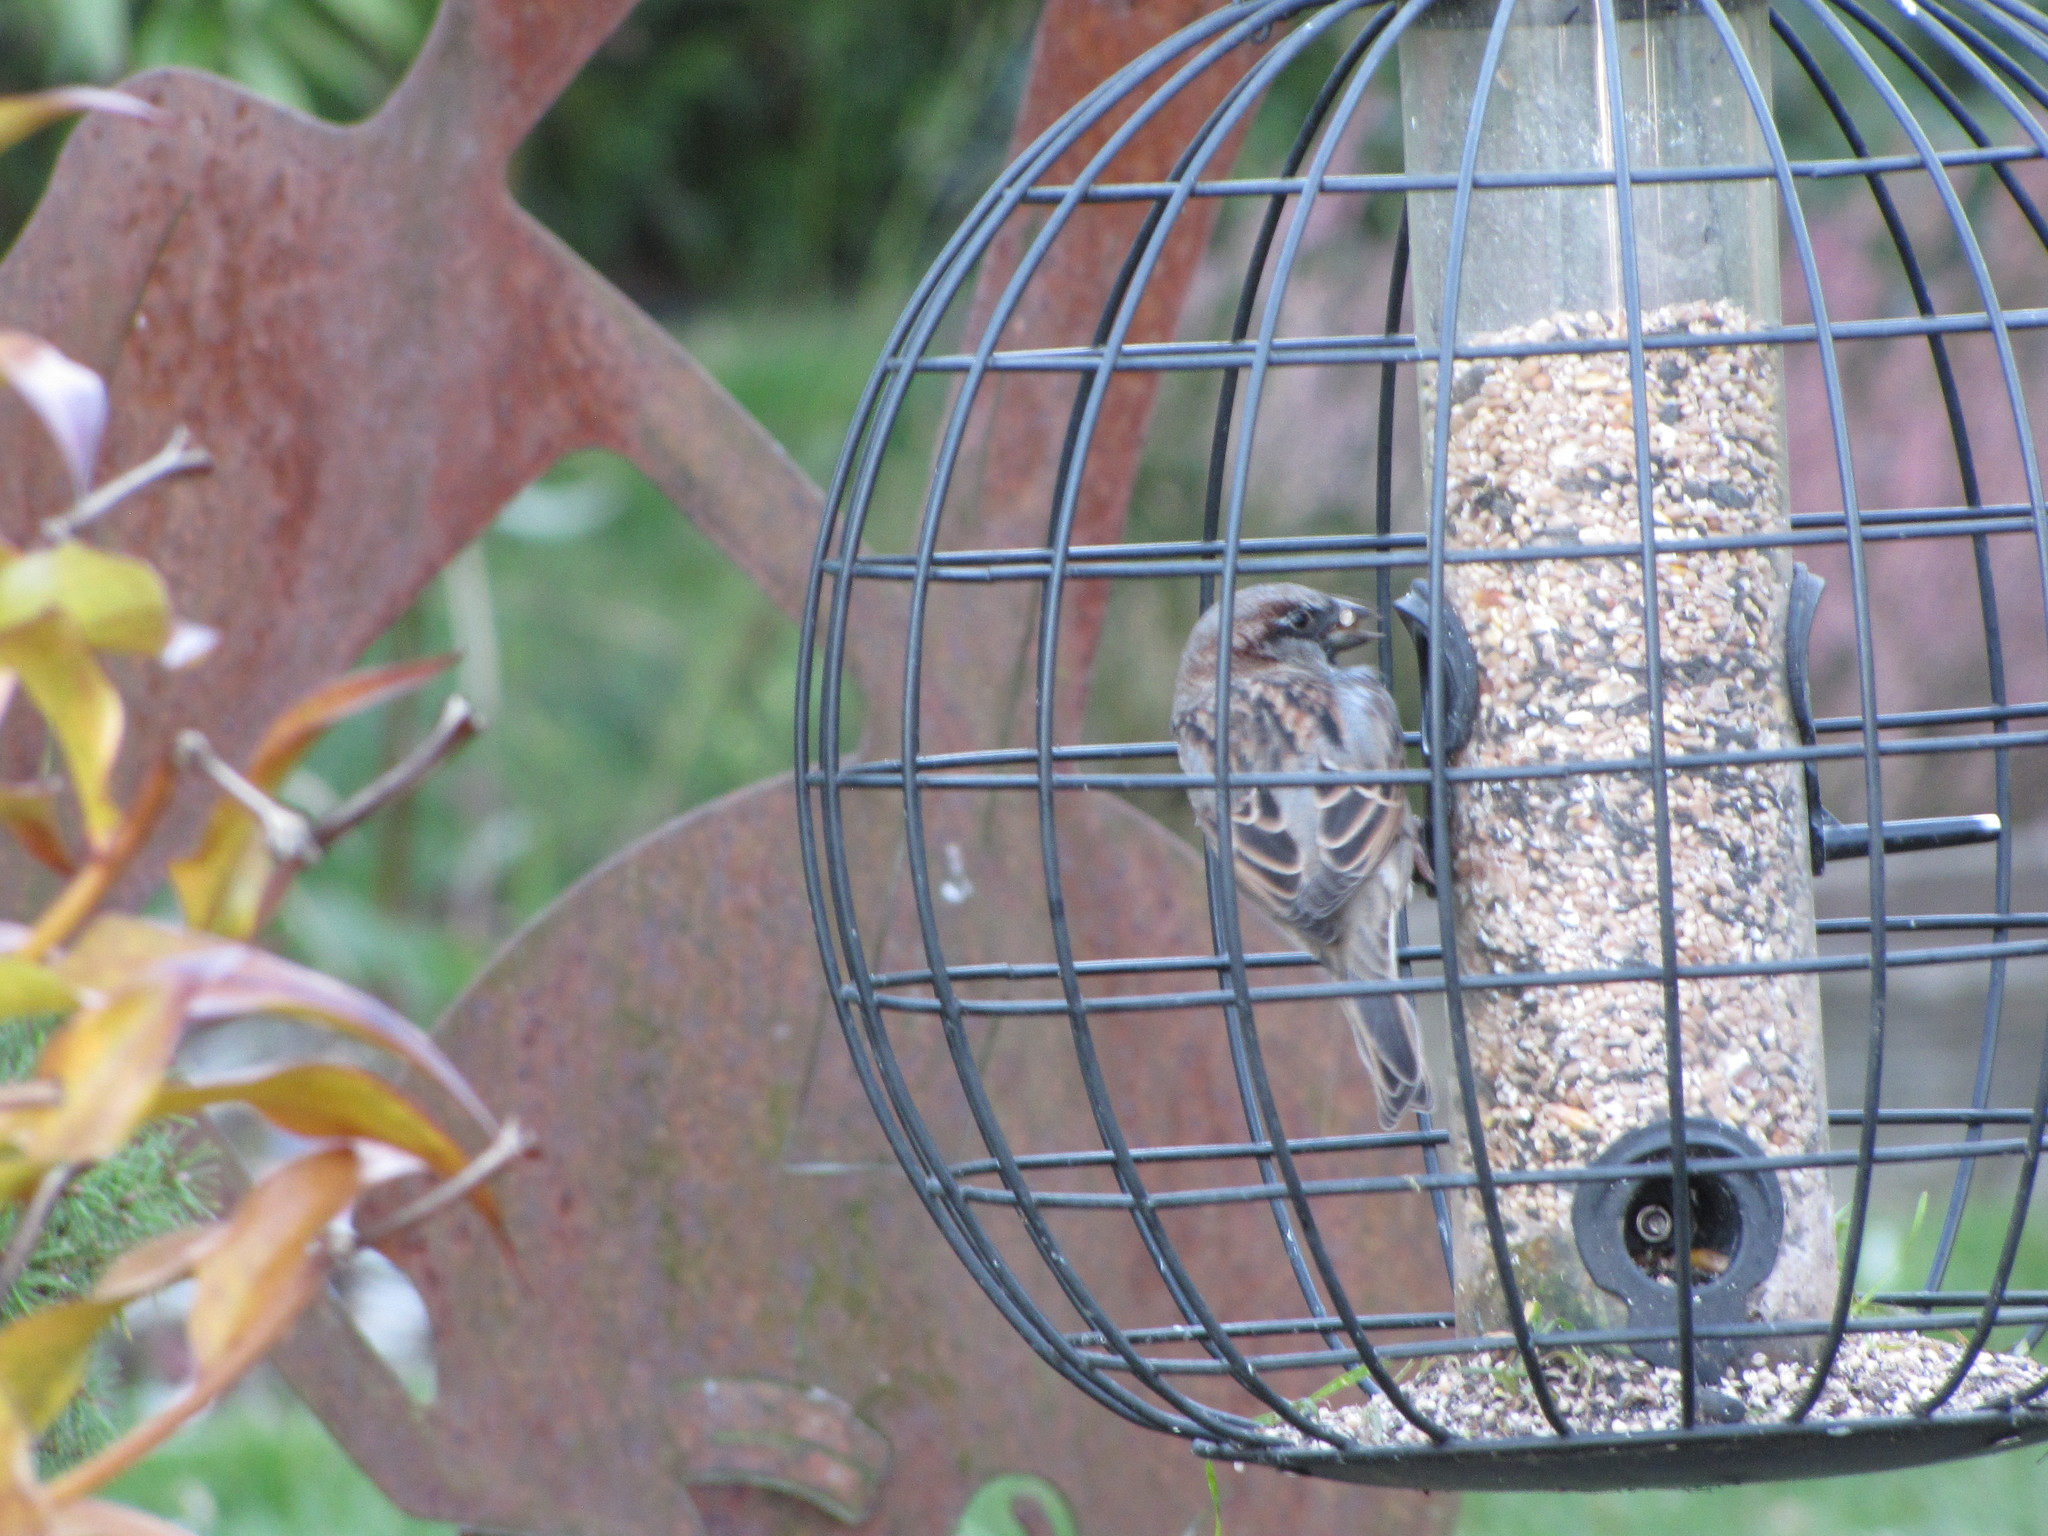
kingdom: Animalia
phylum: Chordata
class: Aves
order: Passeriformes
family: Passeridae
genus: Passer
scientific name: Passer domesticus
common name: House sparrow
